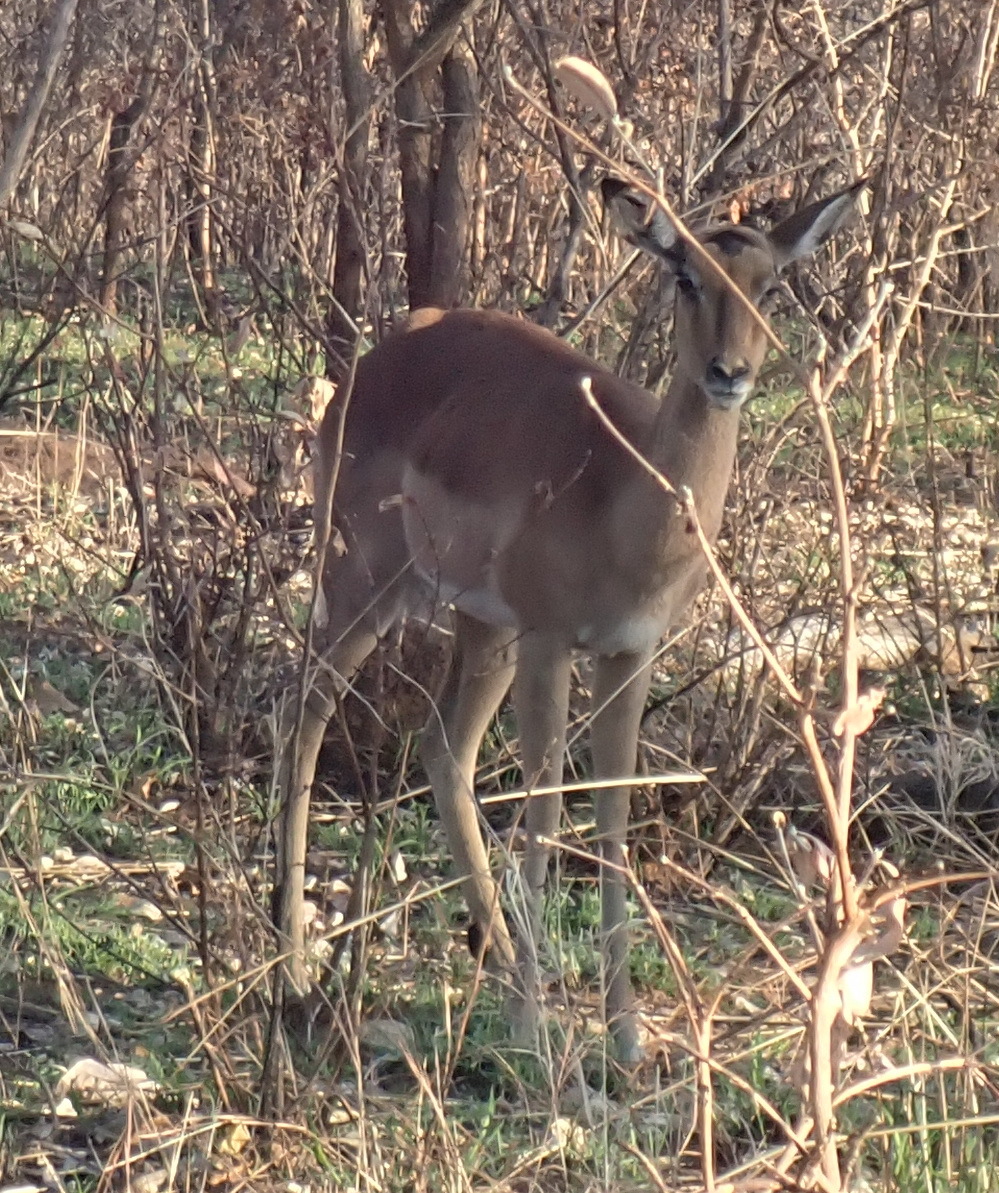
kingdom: Animalia
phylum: Chordata
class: Mammalia
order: Artiodactyla
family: Bovidae
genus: Aepyceros
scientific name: Aepyceros melampus
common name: Impala
